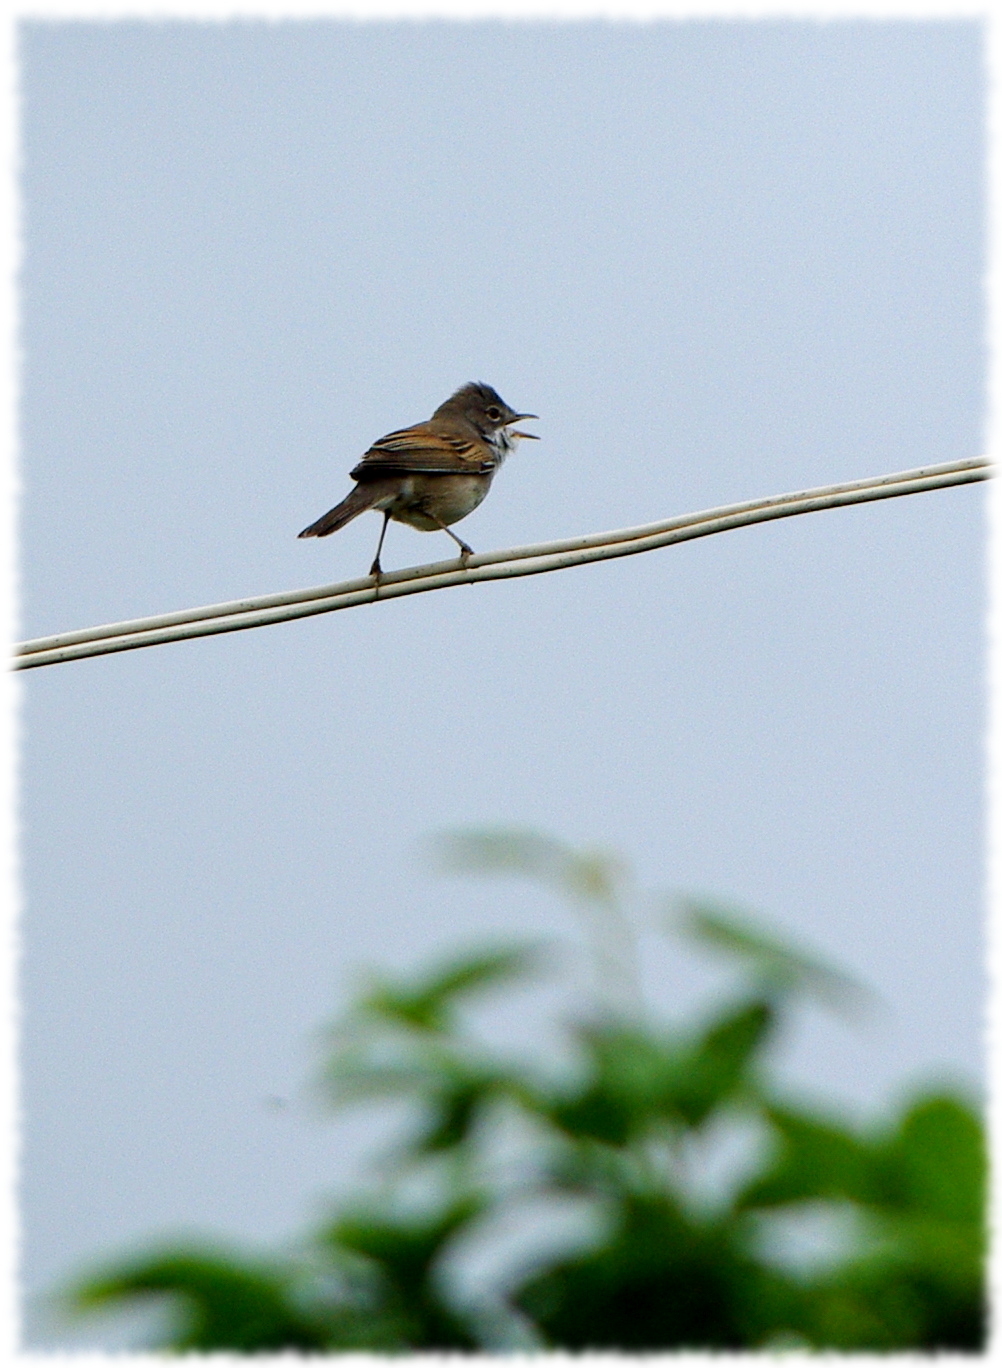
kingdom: Animalia
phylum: Chordata
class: Aves
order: Passeriformes
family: Sylviidae
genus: Sylvia
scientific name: Sylvia communis
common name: Common whitethroat
